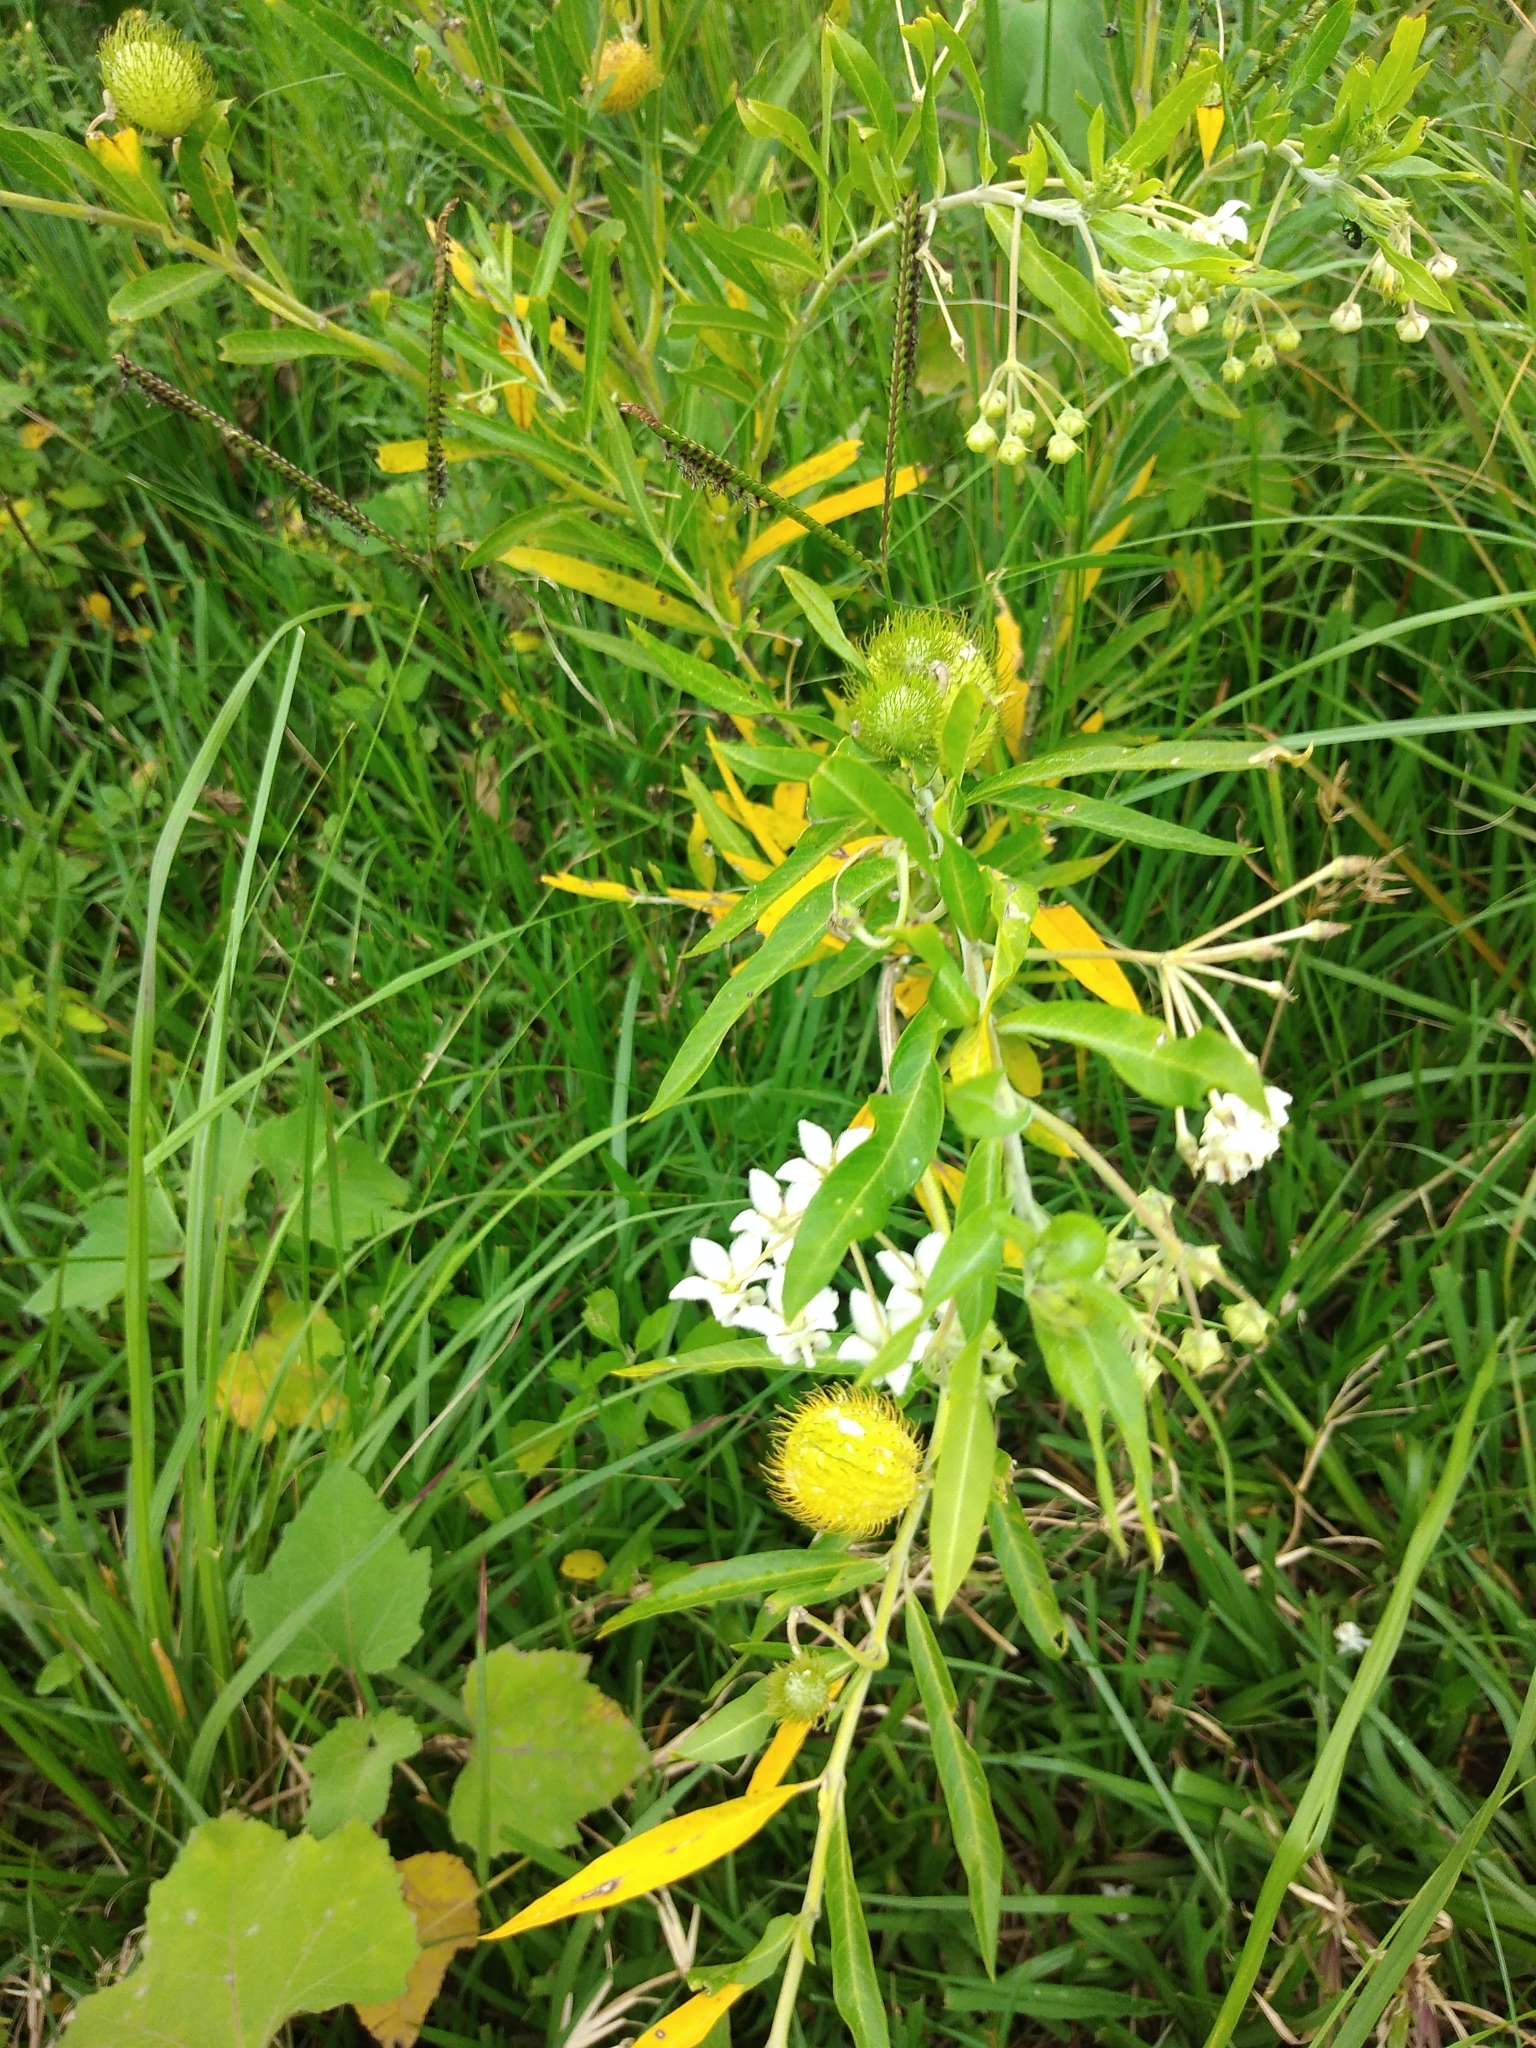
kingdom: Plantae
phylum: Tracheophyta
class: Magnoliopsida
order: Gentianales
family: Apocynaceae
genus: Gomphocarpus
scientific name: Gomphocarpus physocarpus
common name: Balloon cotton bush
